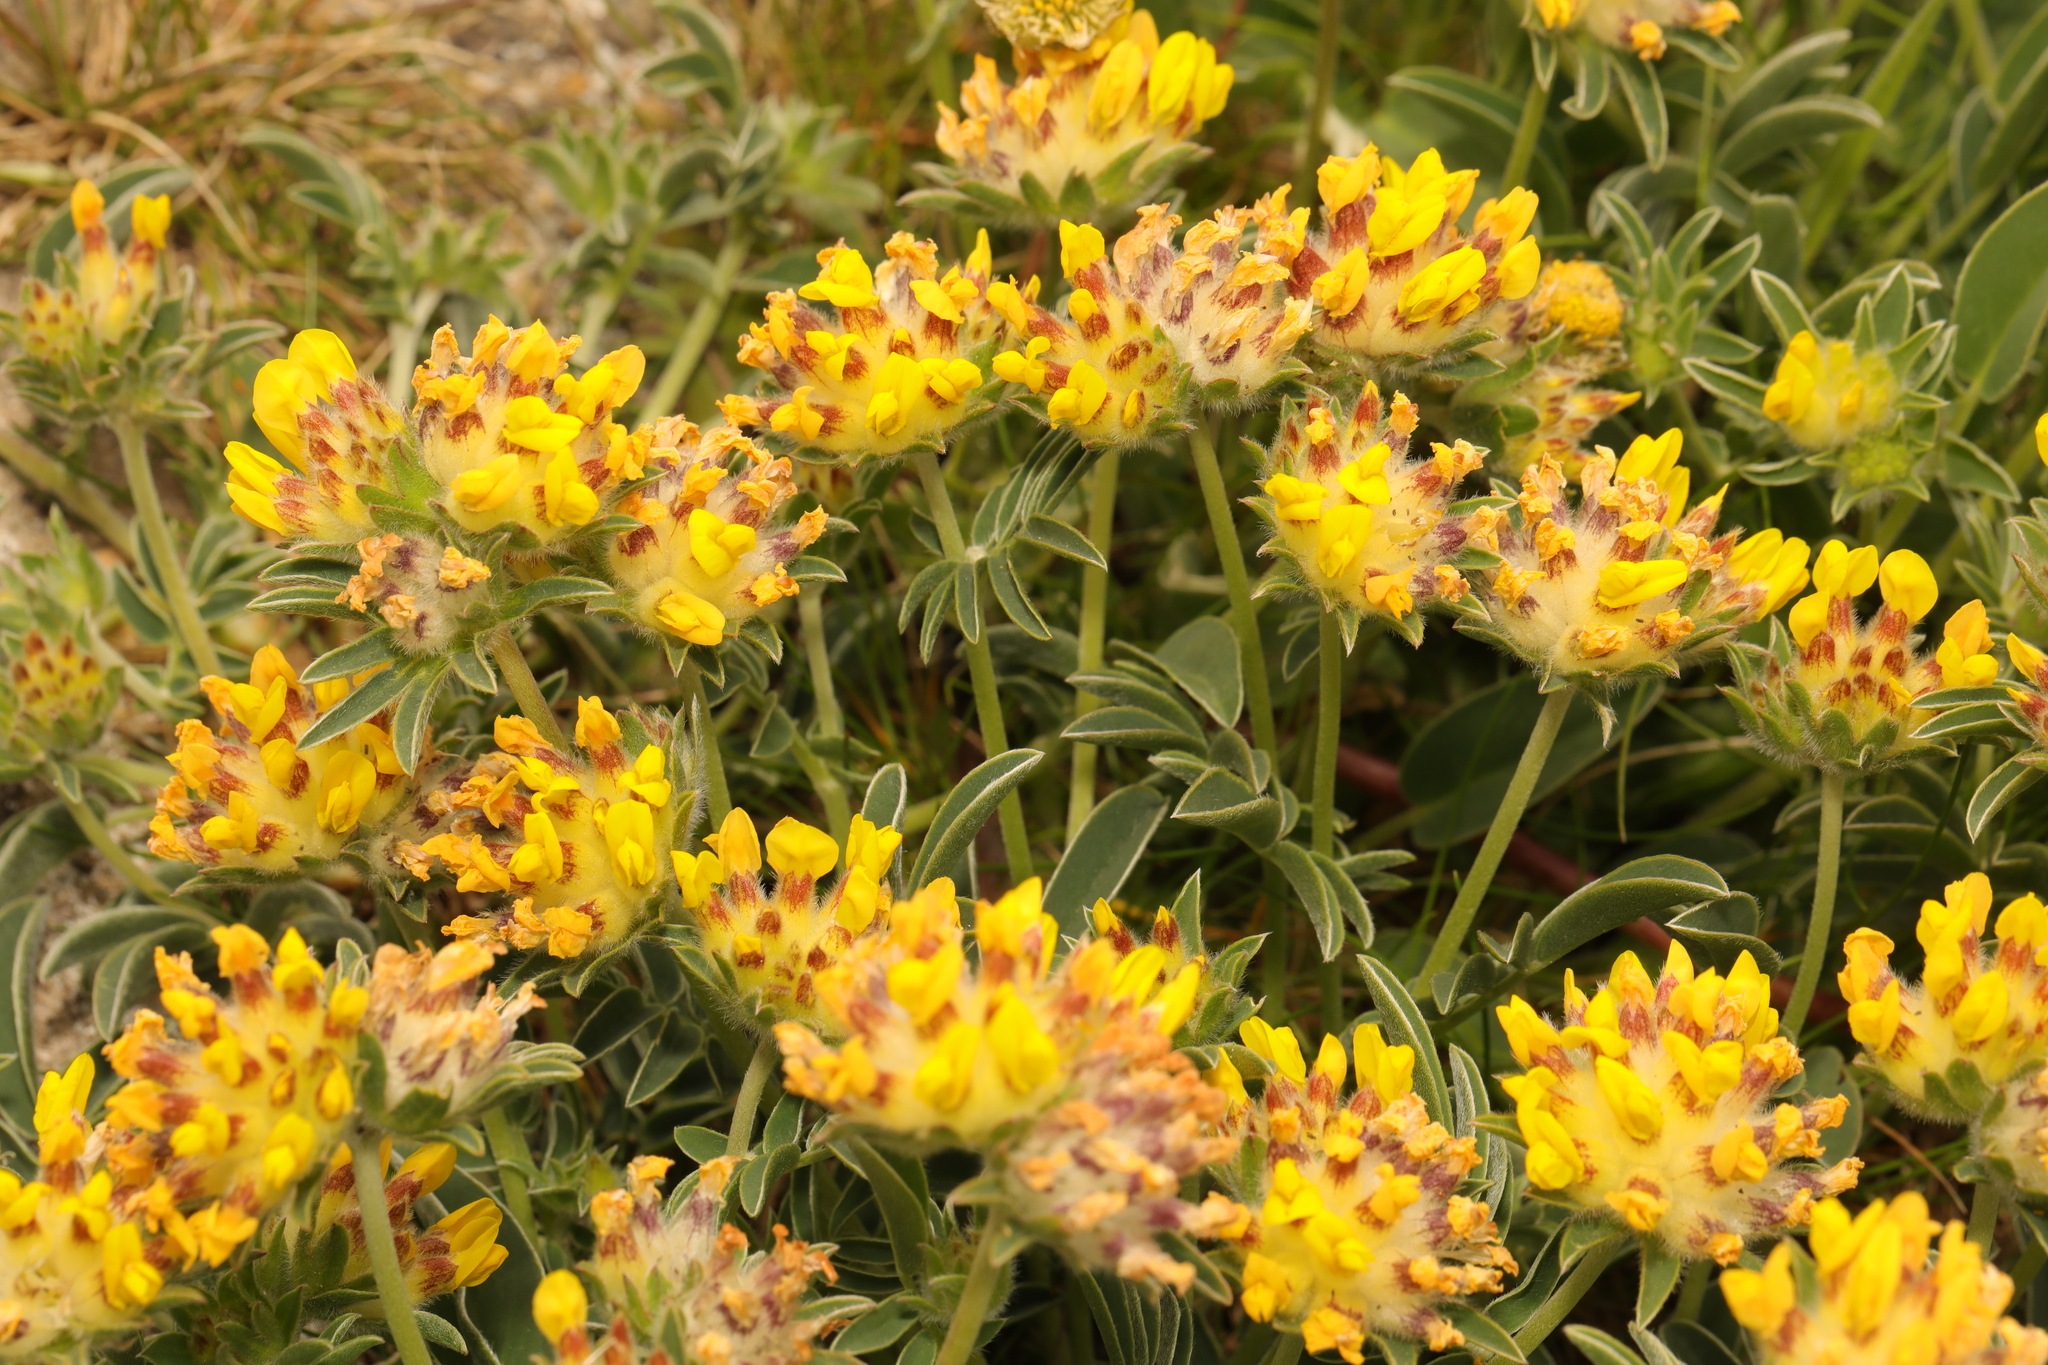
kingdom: Plantae
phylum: Tracheophyta
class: Magnoliopsida
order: Fabales
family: Fabaceae
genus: Anthyllis
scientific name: Anthyllis vulneraria
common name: Kidney vetch
